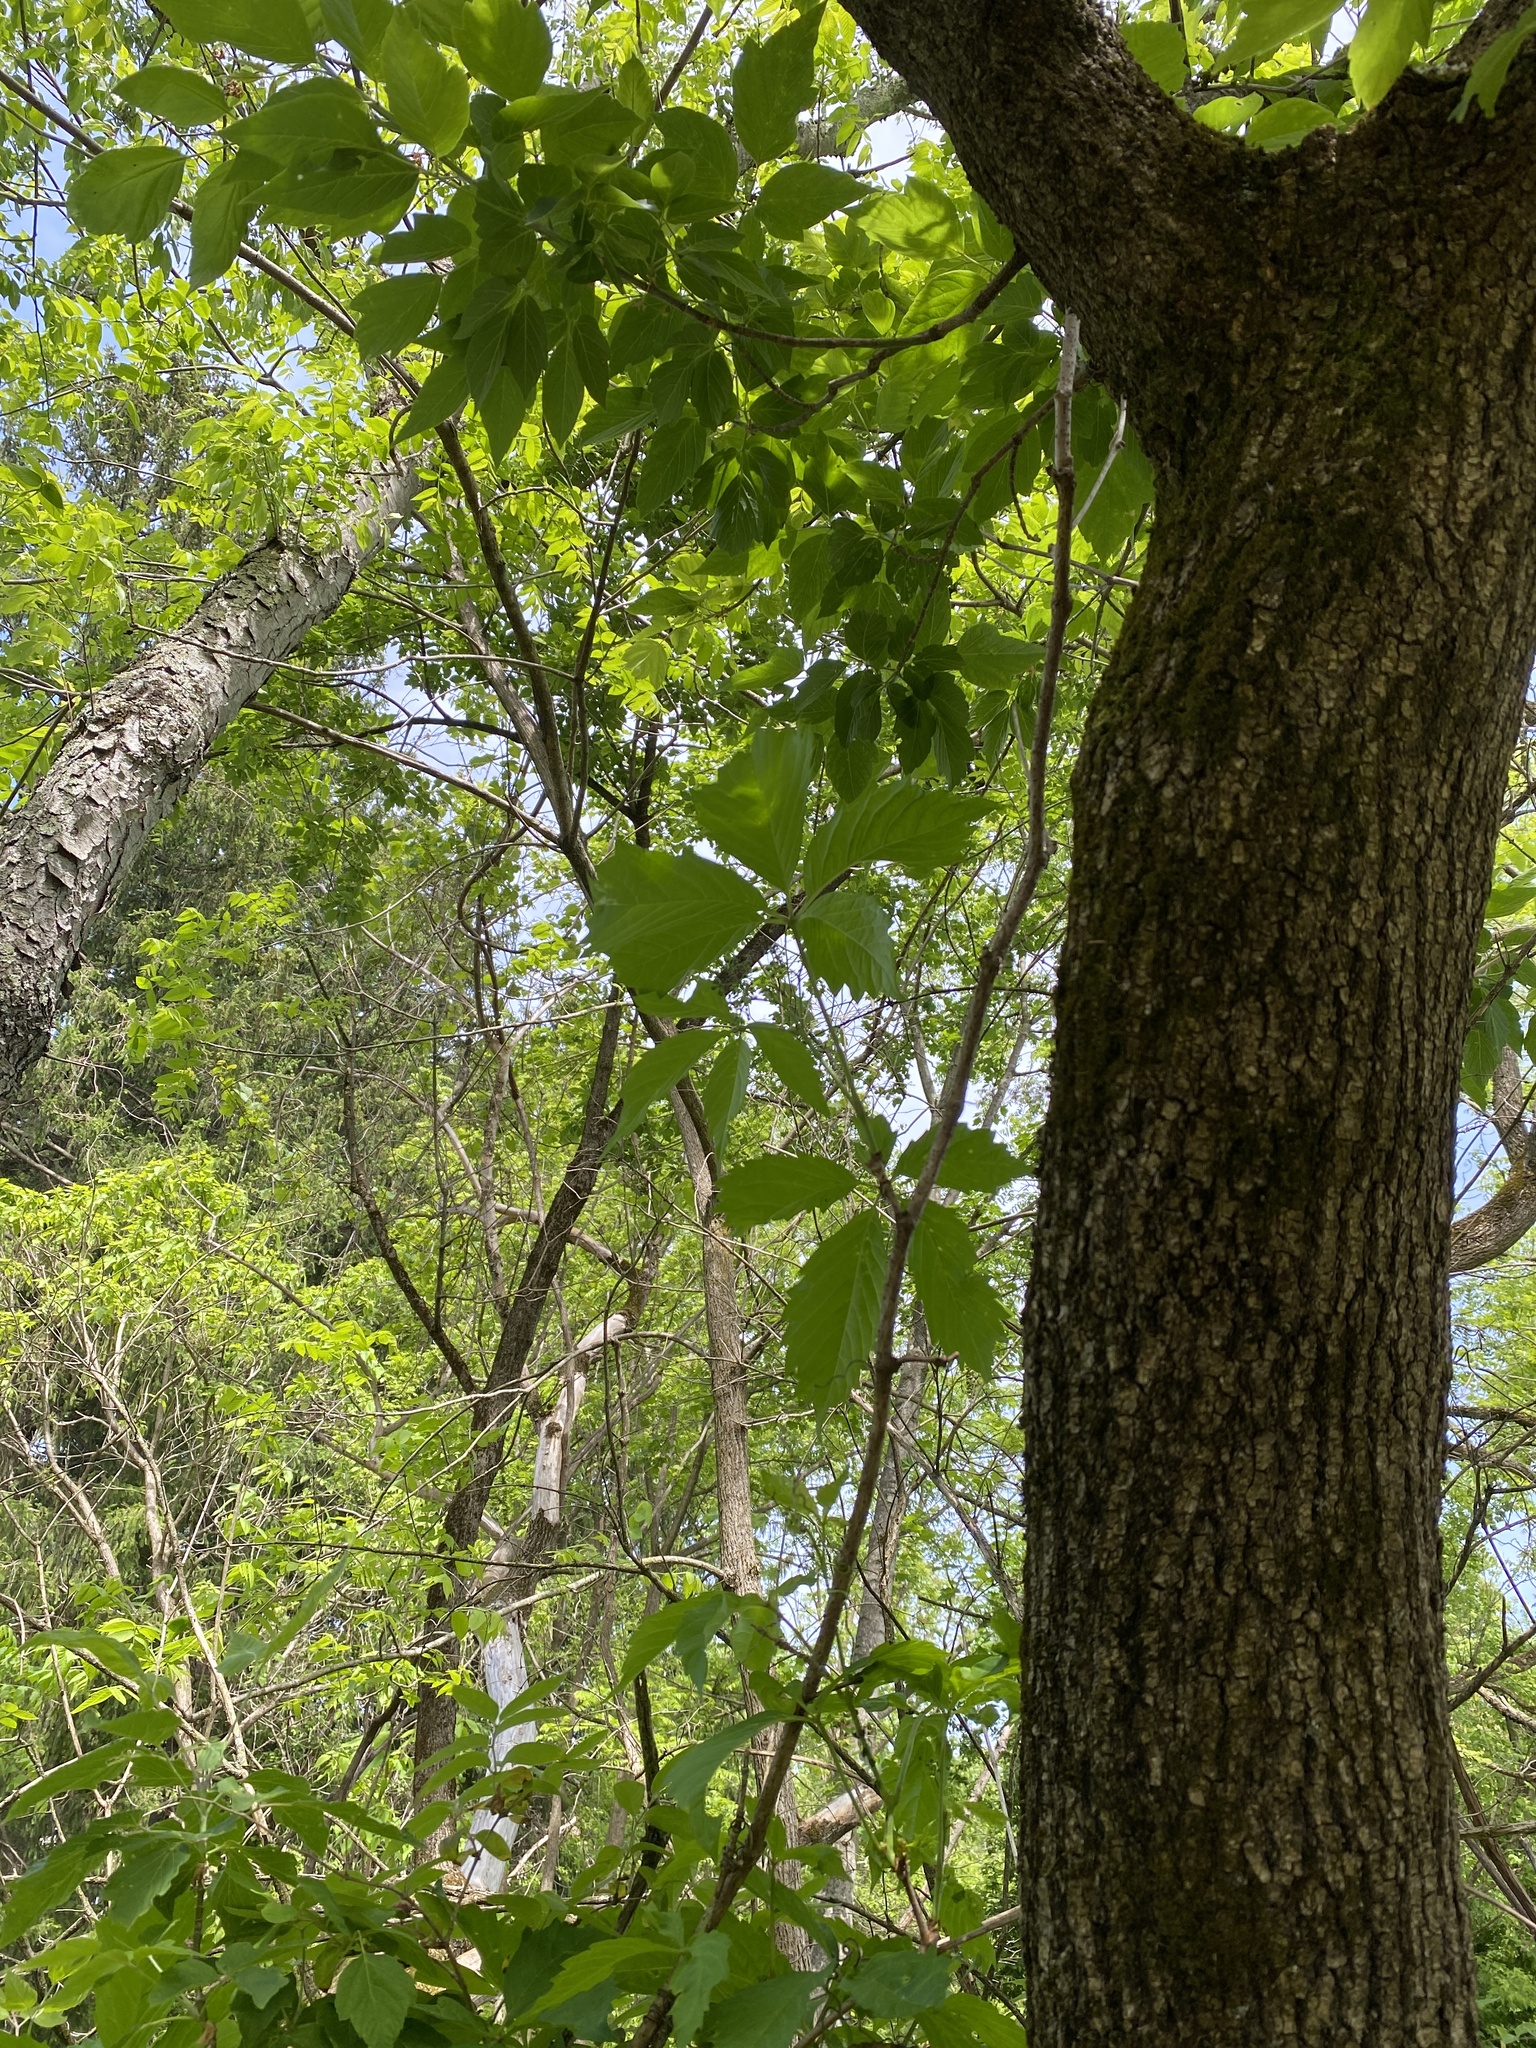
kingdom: Plantae
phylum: Tracheophyta
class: Magnoliopsida
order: Vitales
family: Vitaceae
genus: Parthenocissus
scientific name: Parthenocissus inserta
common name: False virginia-creeper
